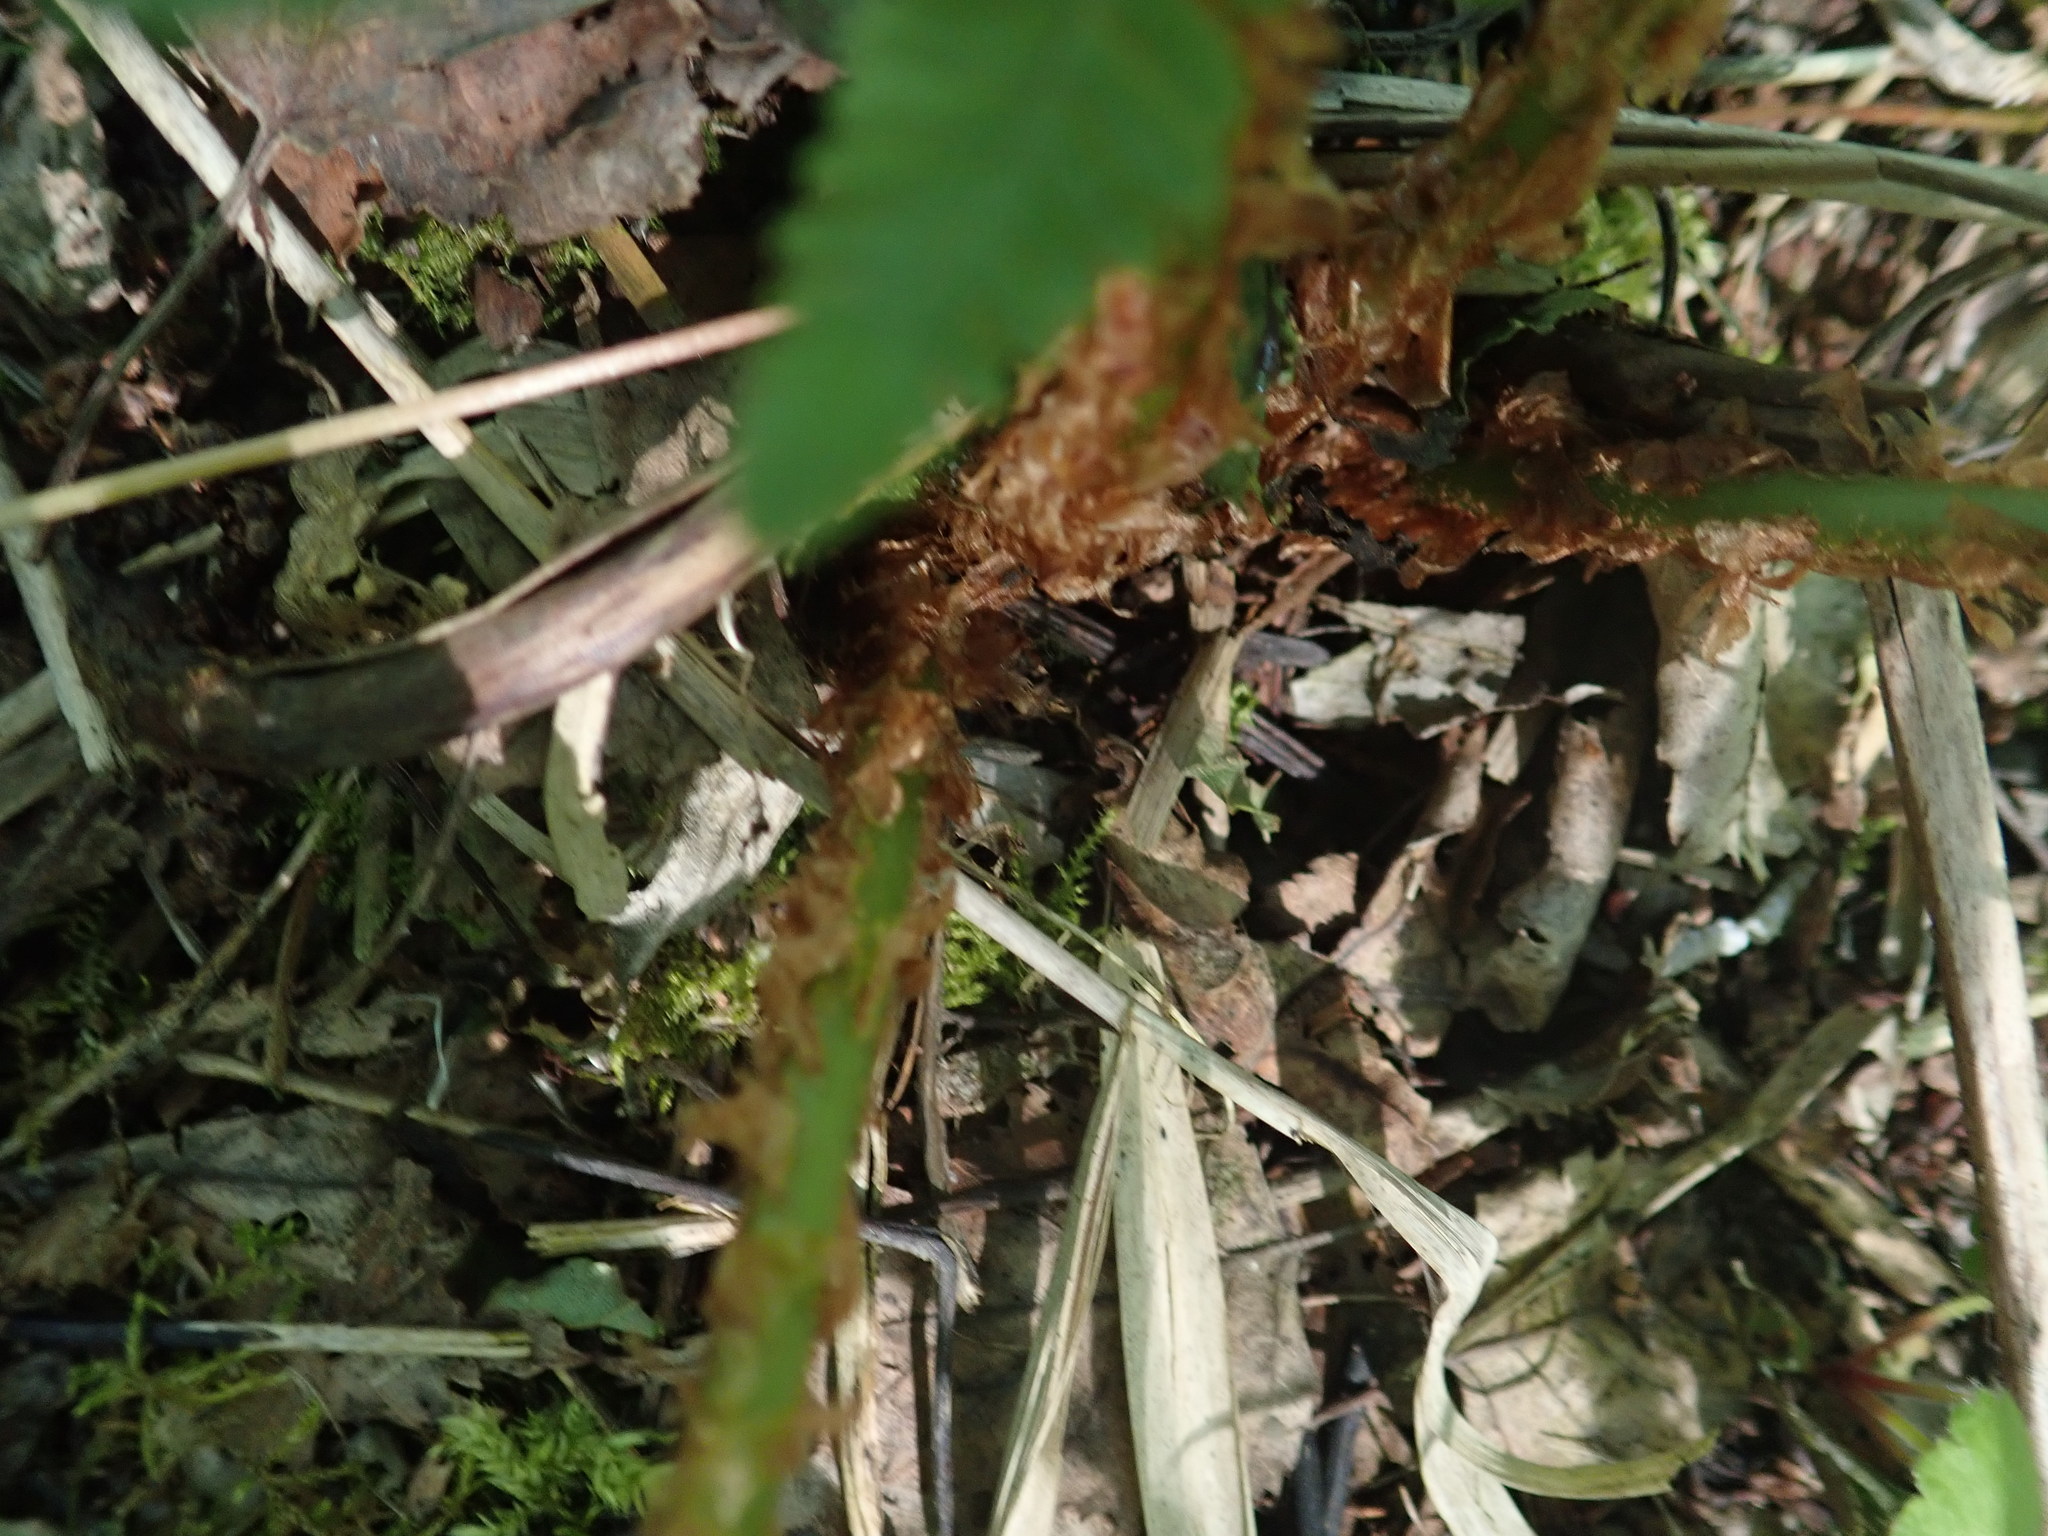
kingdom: Plantae
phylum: Tracheophyta
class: Polypodiopsida
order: Polypodiales
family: Dryopteridaceae
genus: Dryopteris
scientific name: Dryopteris filix-mas
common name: Male fern
